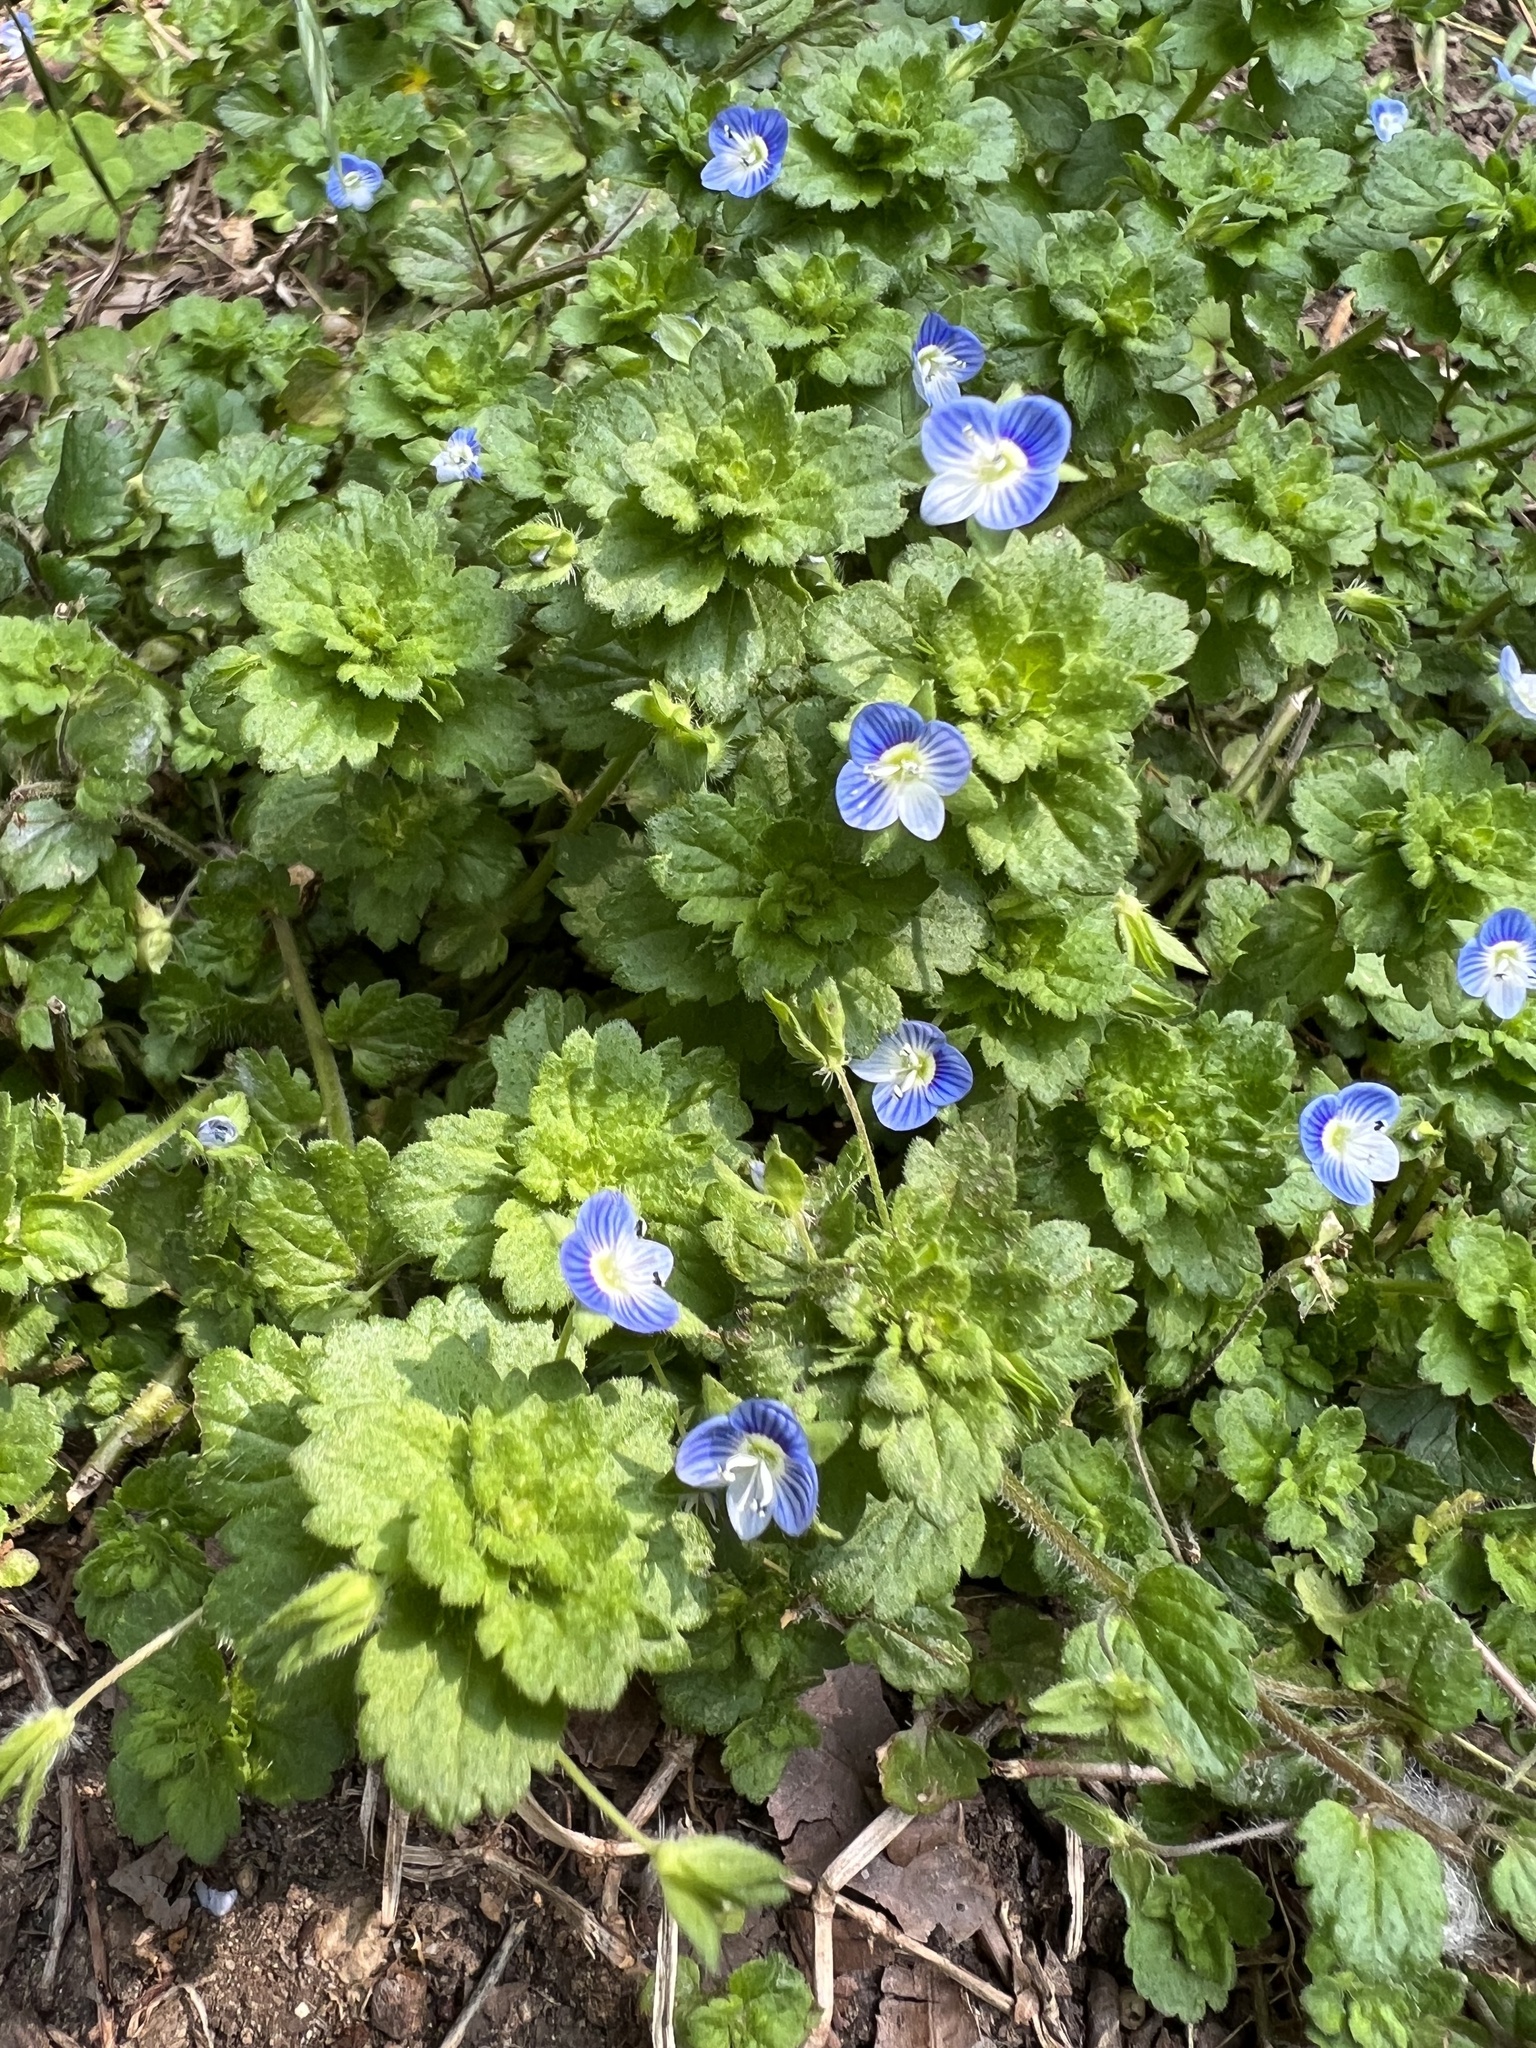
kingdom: Plantae
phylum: Tracheophyta
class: Magnoliopsida
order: Lamiales
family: Plantaginaceae
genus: Veronica
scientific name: Veronica persica
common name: Common field-speedwell
